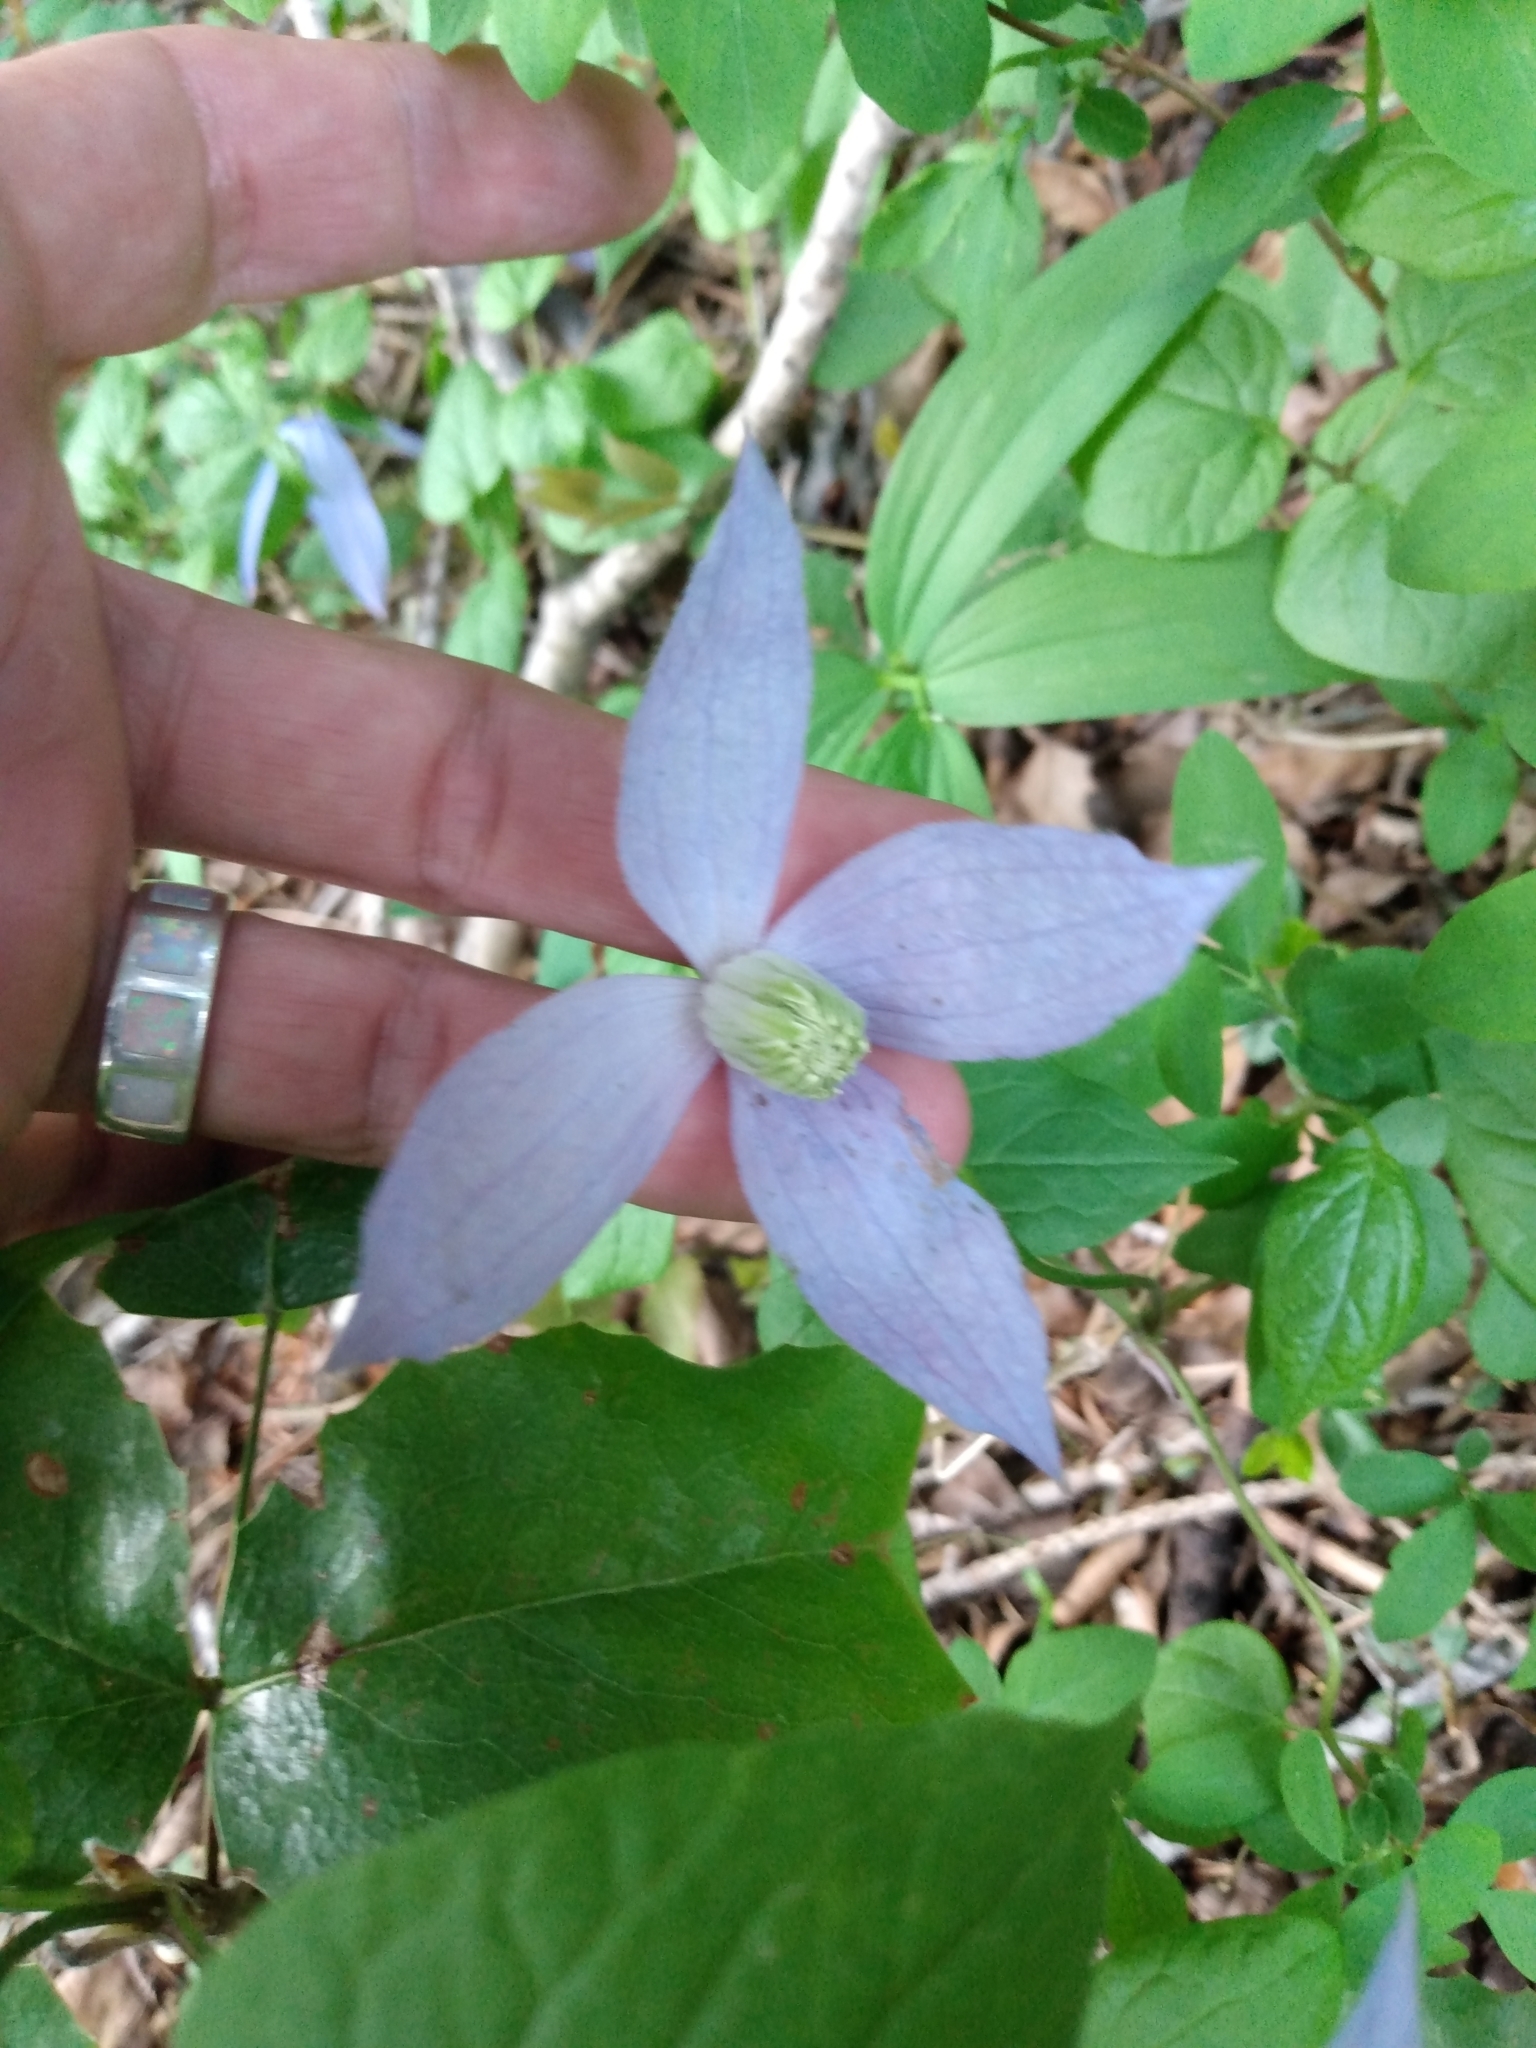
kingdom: Plantae
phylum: Tracheophyta
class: Magnoliopsida
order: Ranunculales
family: Ranunculaceae
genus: Clematis
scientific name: Clematis occidentalis
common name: Purple clematis
